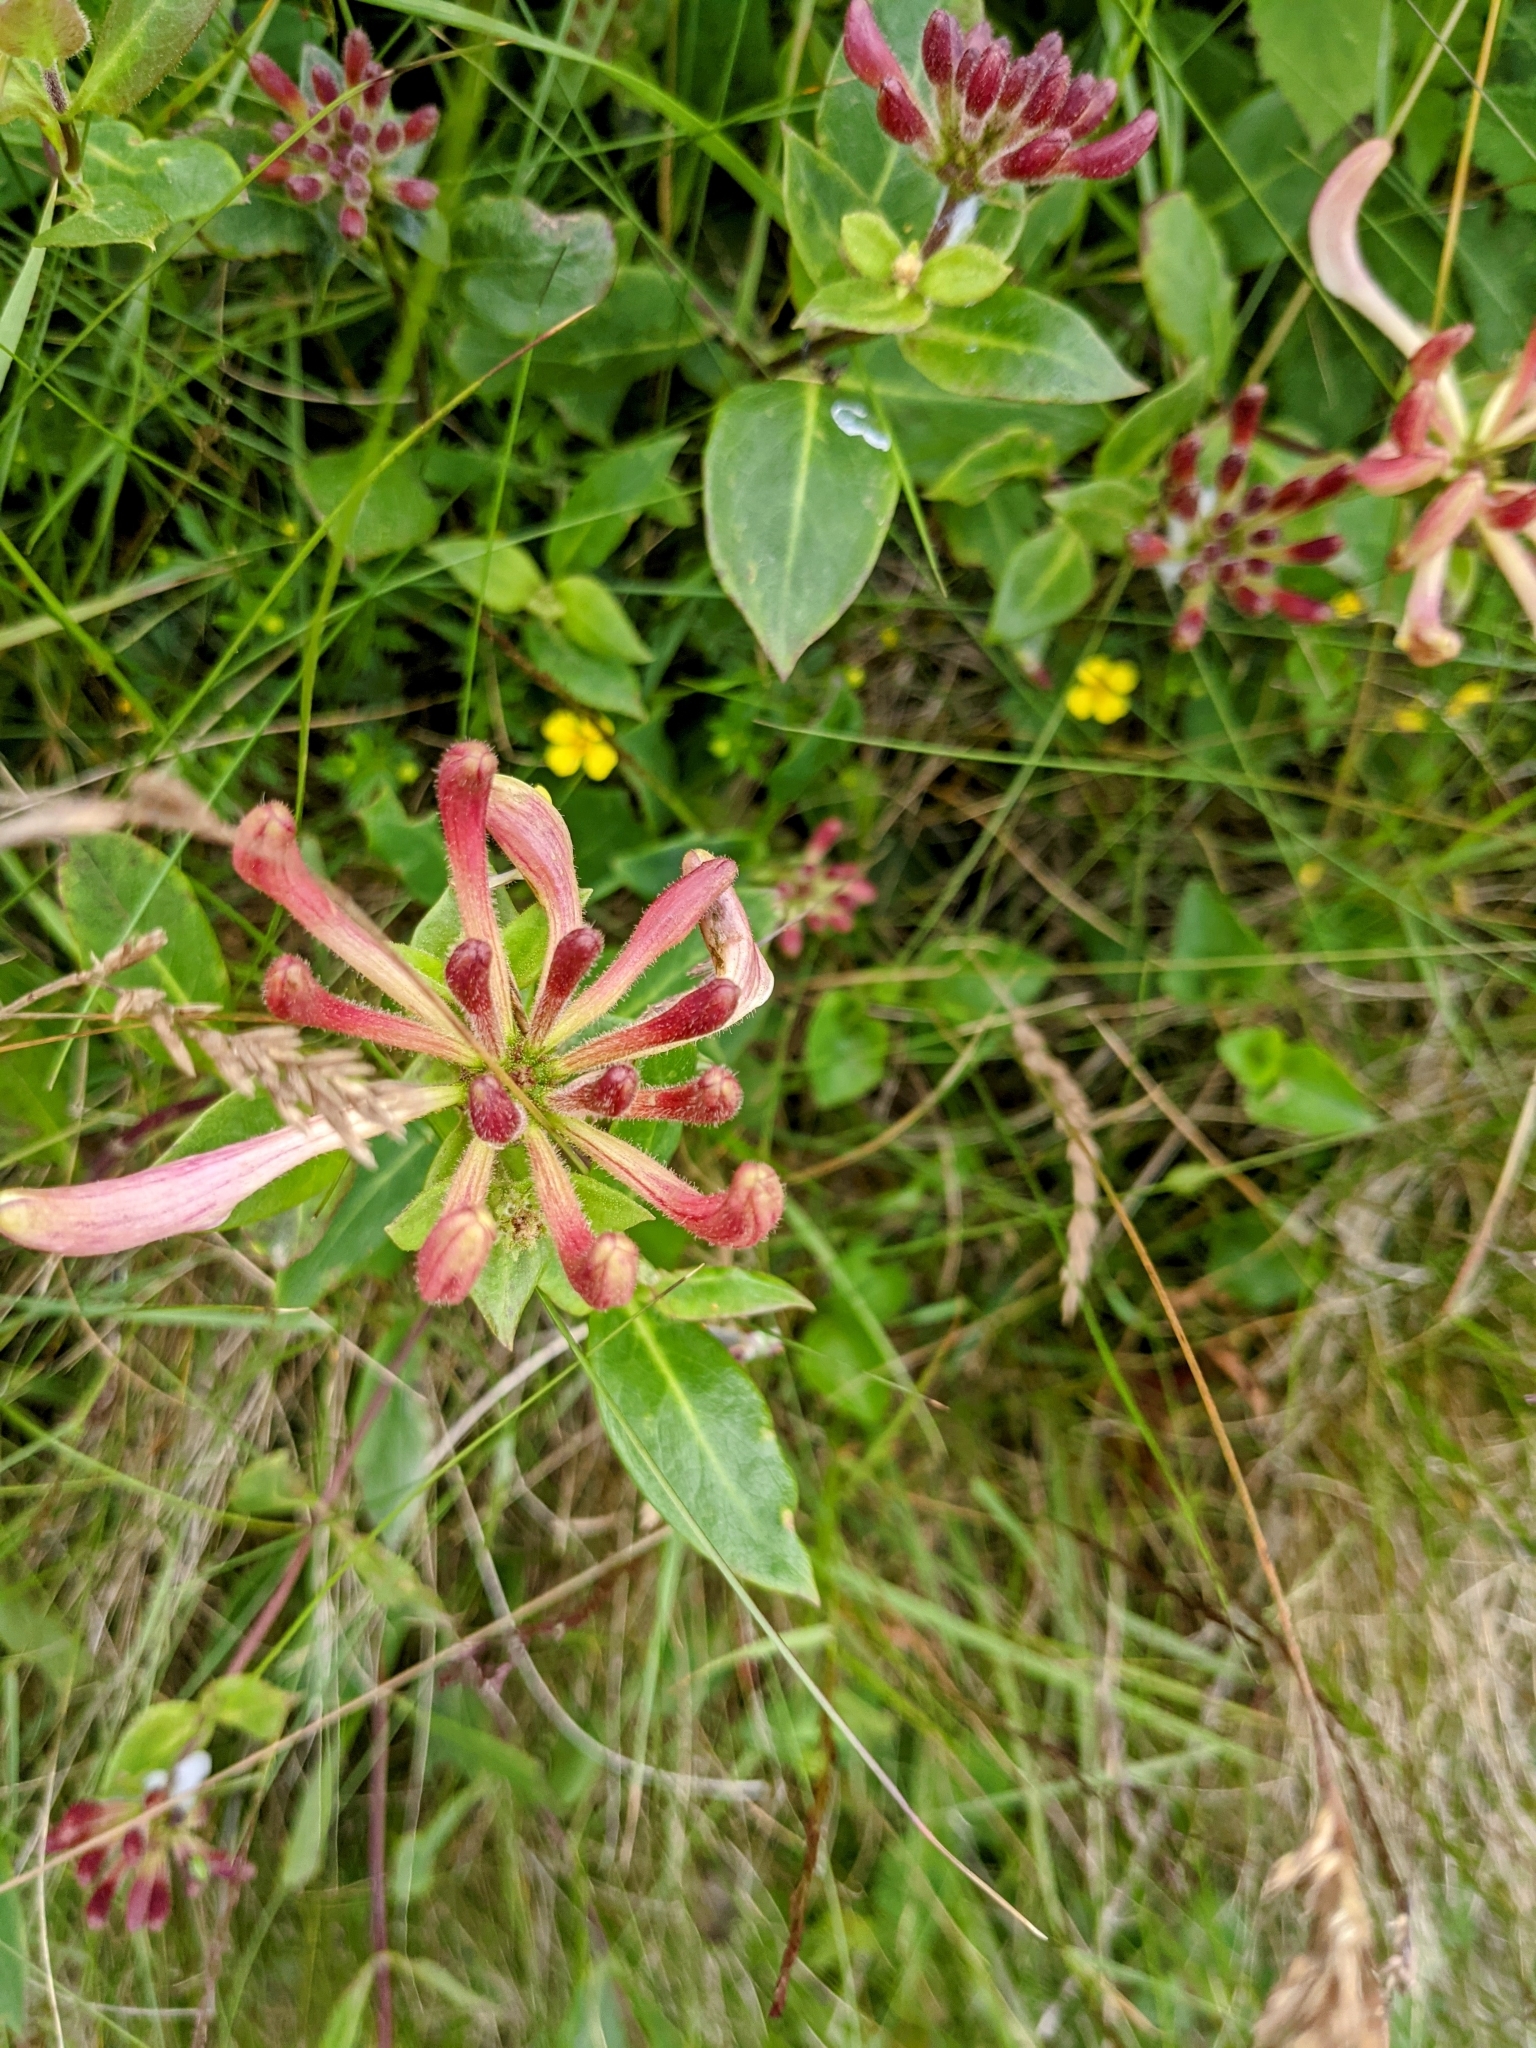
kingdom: Plantae
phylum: Tracheophyta
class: Magnoliopsida
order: Dipsacales
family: Caprifoliaceae
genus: Lonicera
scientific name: Lonicera periclymenum
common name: European honeysuckle
